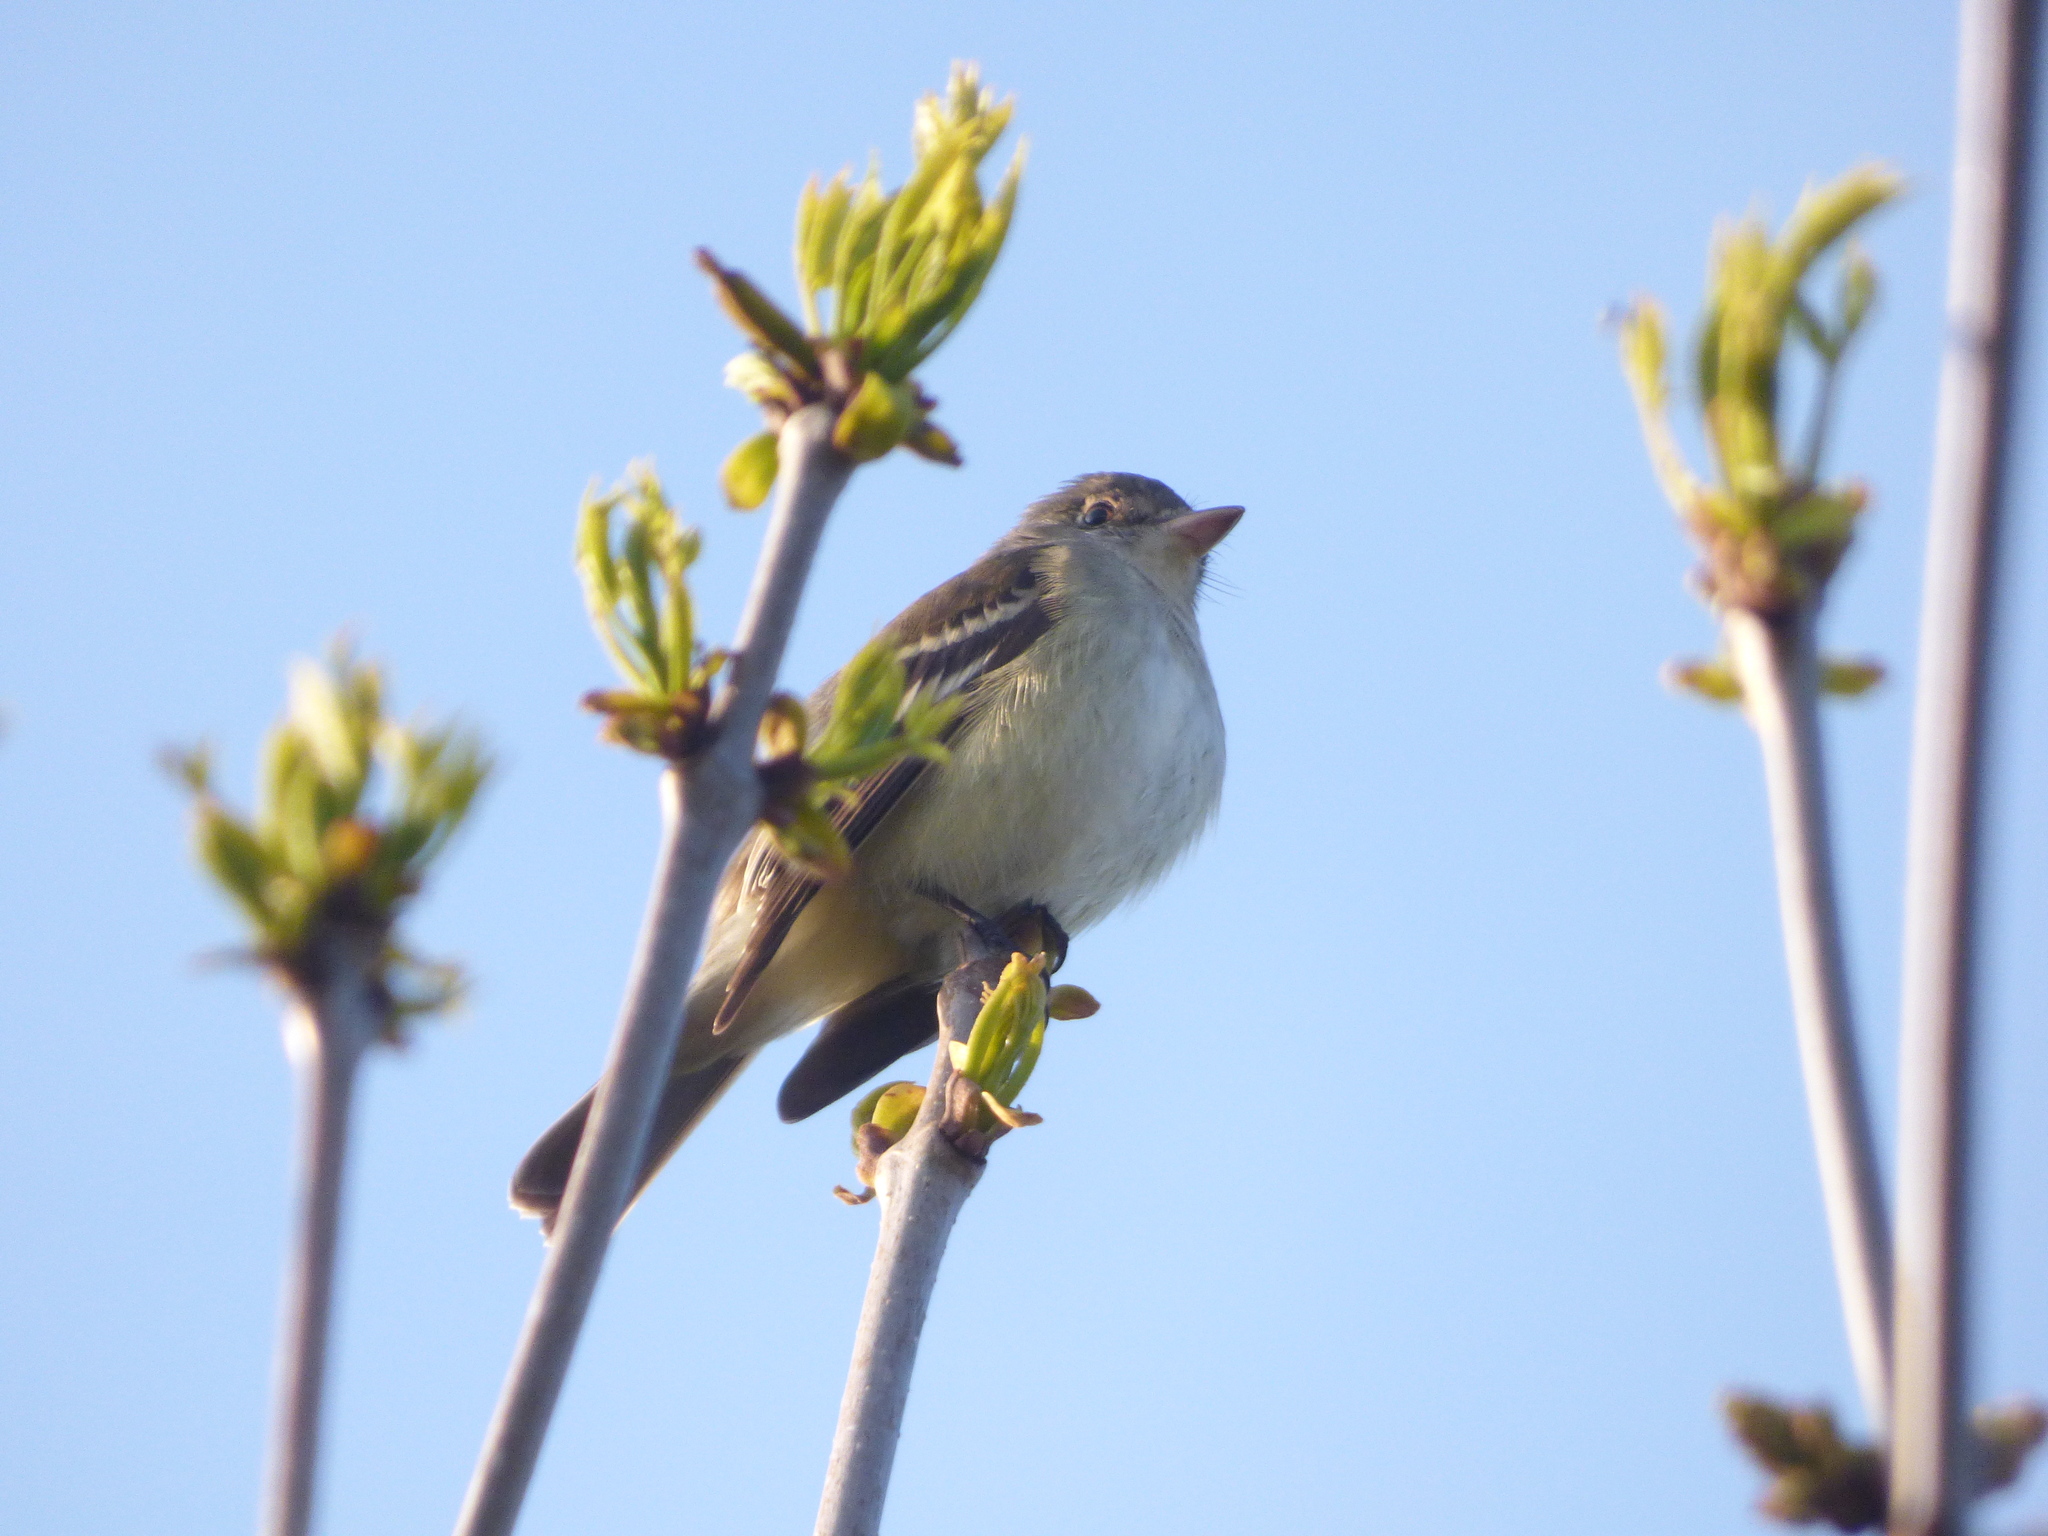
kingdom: Animalia
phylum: Chordata
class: Aves
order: Passeriformes
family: Tyrannidae
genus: Empidonax
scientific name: Empidonax traillii
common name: Willow flycatcher
